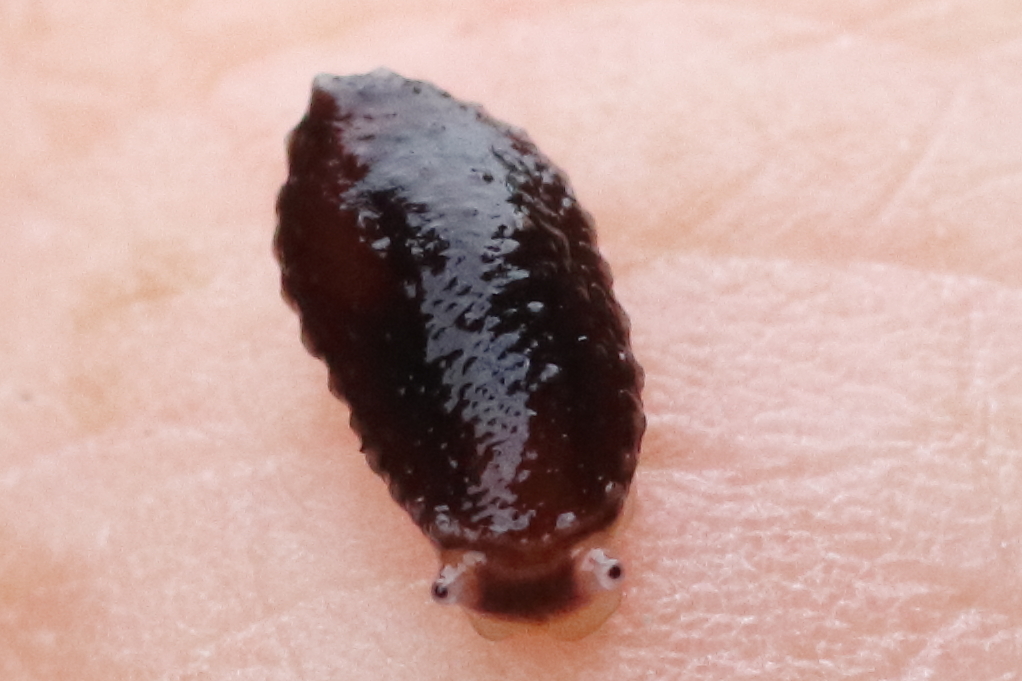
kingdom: Animalia
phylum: Mollusca
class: Gastropoda
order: Systellommatophora
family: Onchidiidae
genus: Onchidella
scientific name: Onchidella carpenteri
